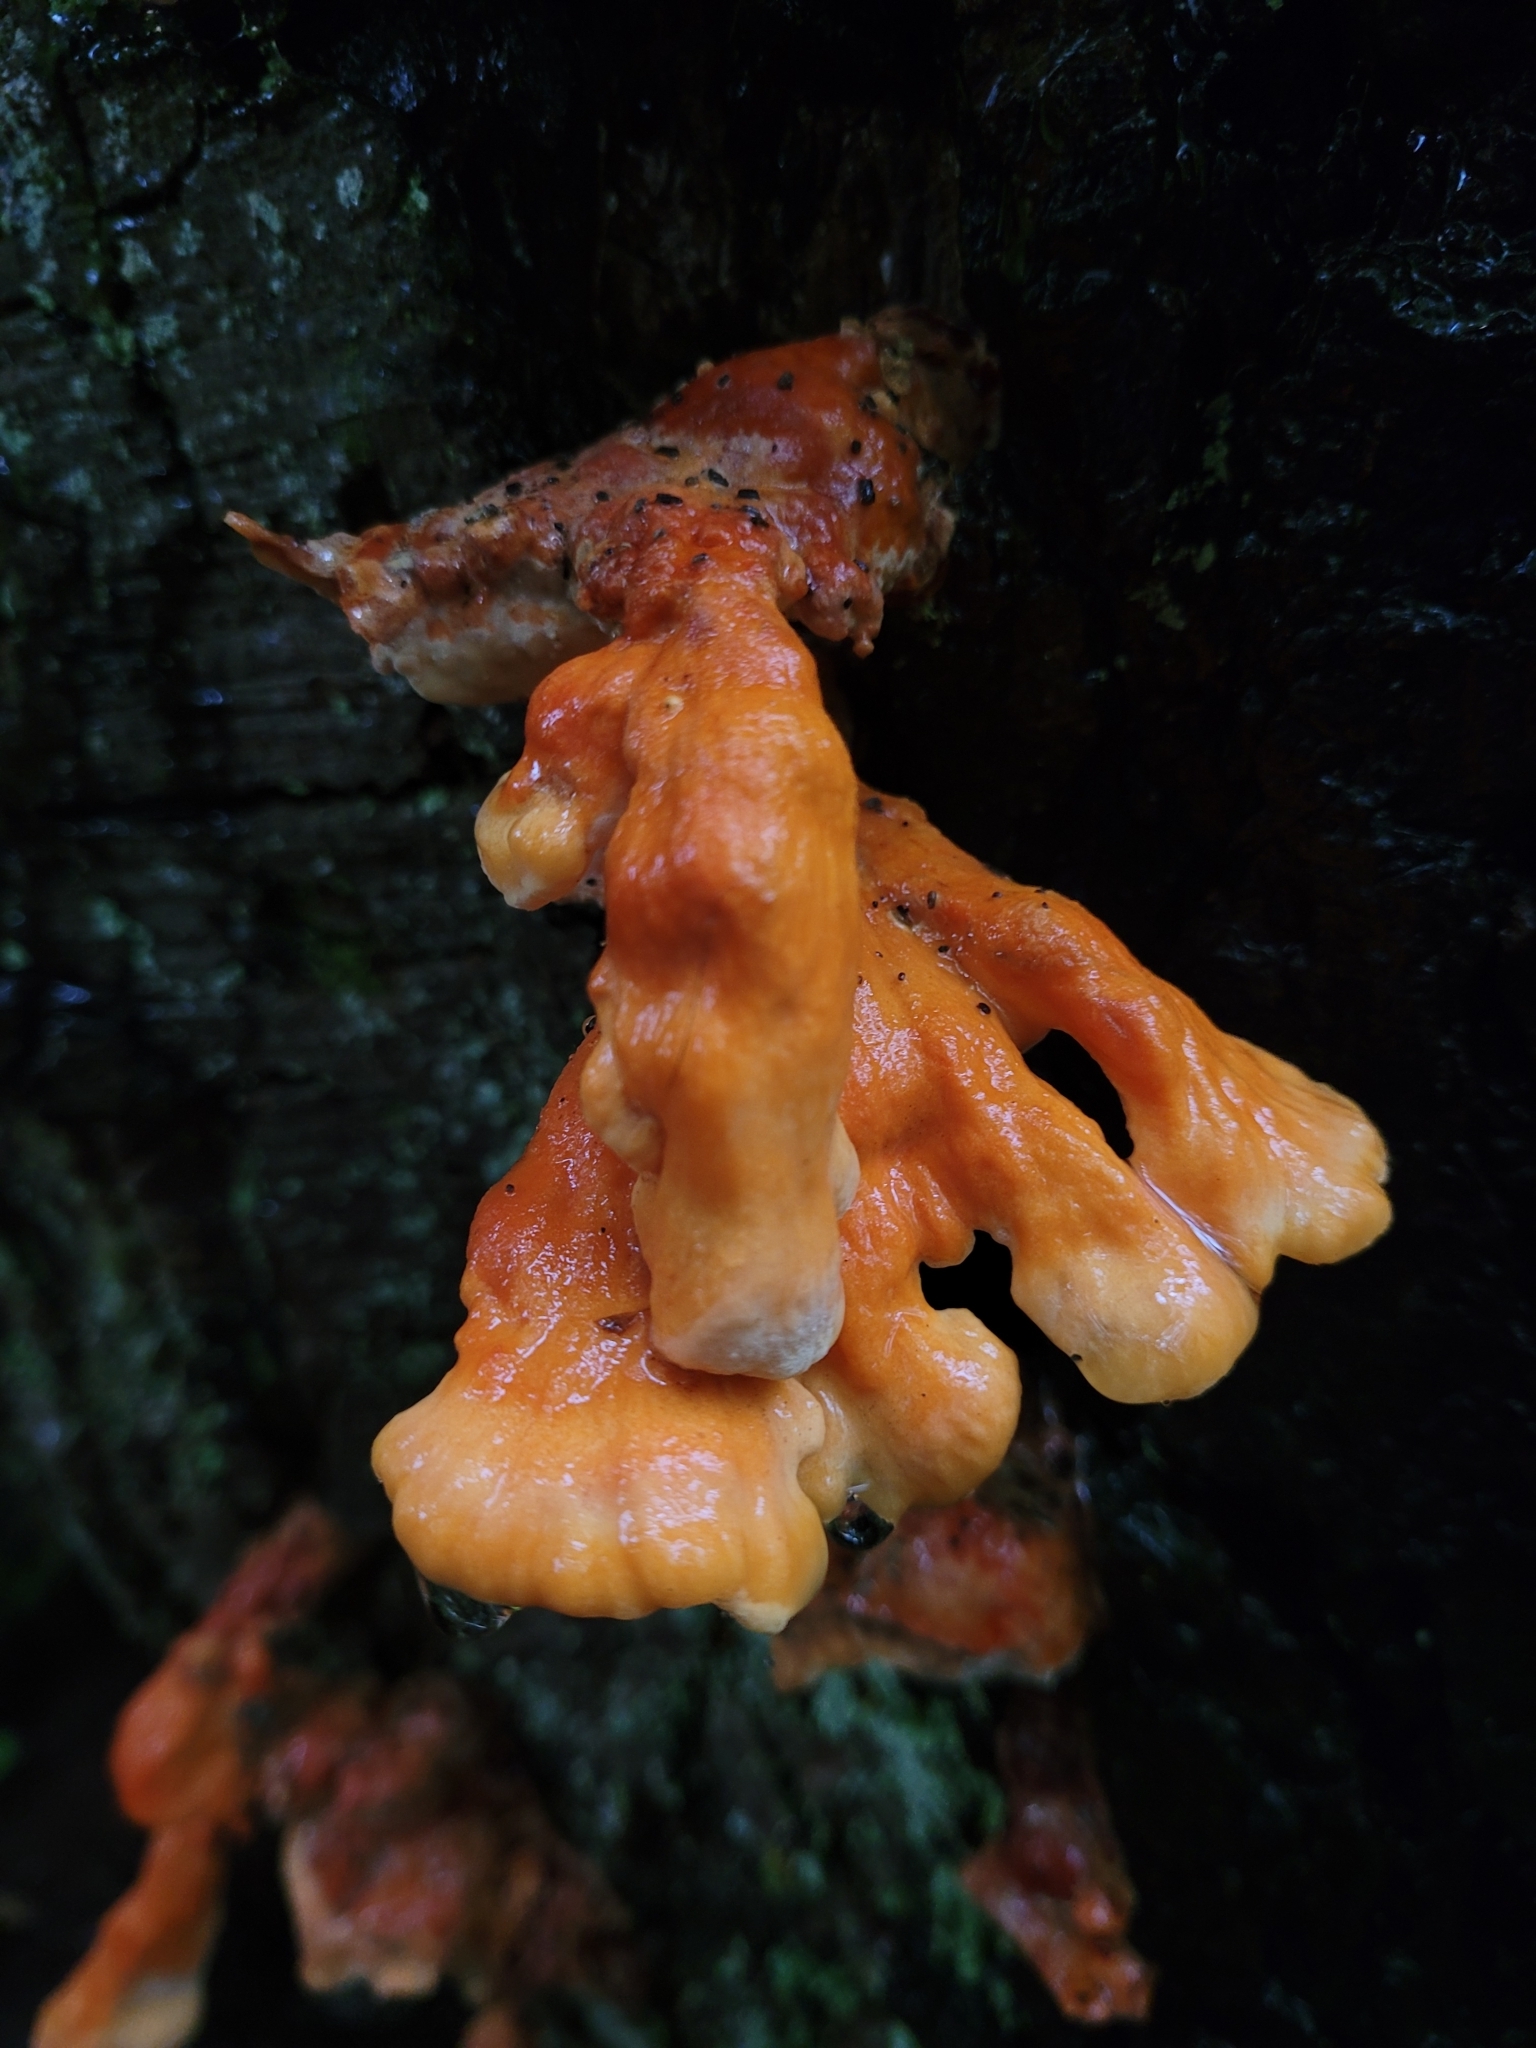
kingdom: Fungi
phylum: Basidiomycota
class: Agaricomycetes
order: Polyporales
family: Laetiporaceae
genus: Laetiporus
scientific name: Laetiporus conifericola
